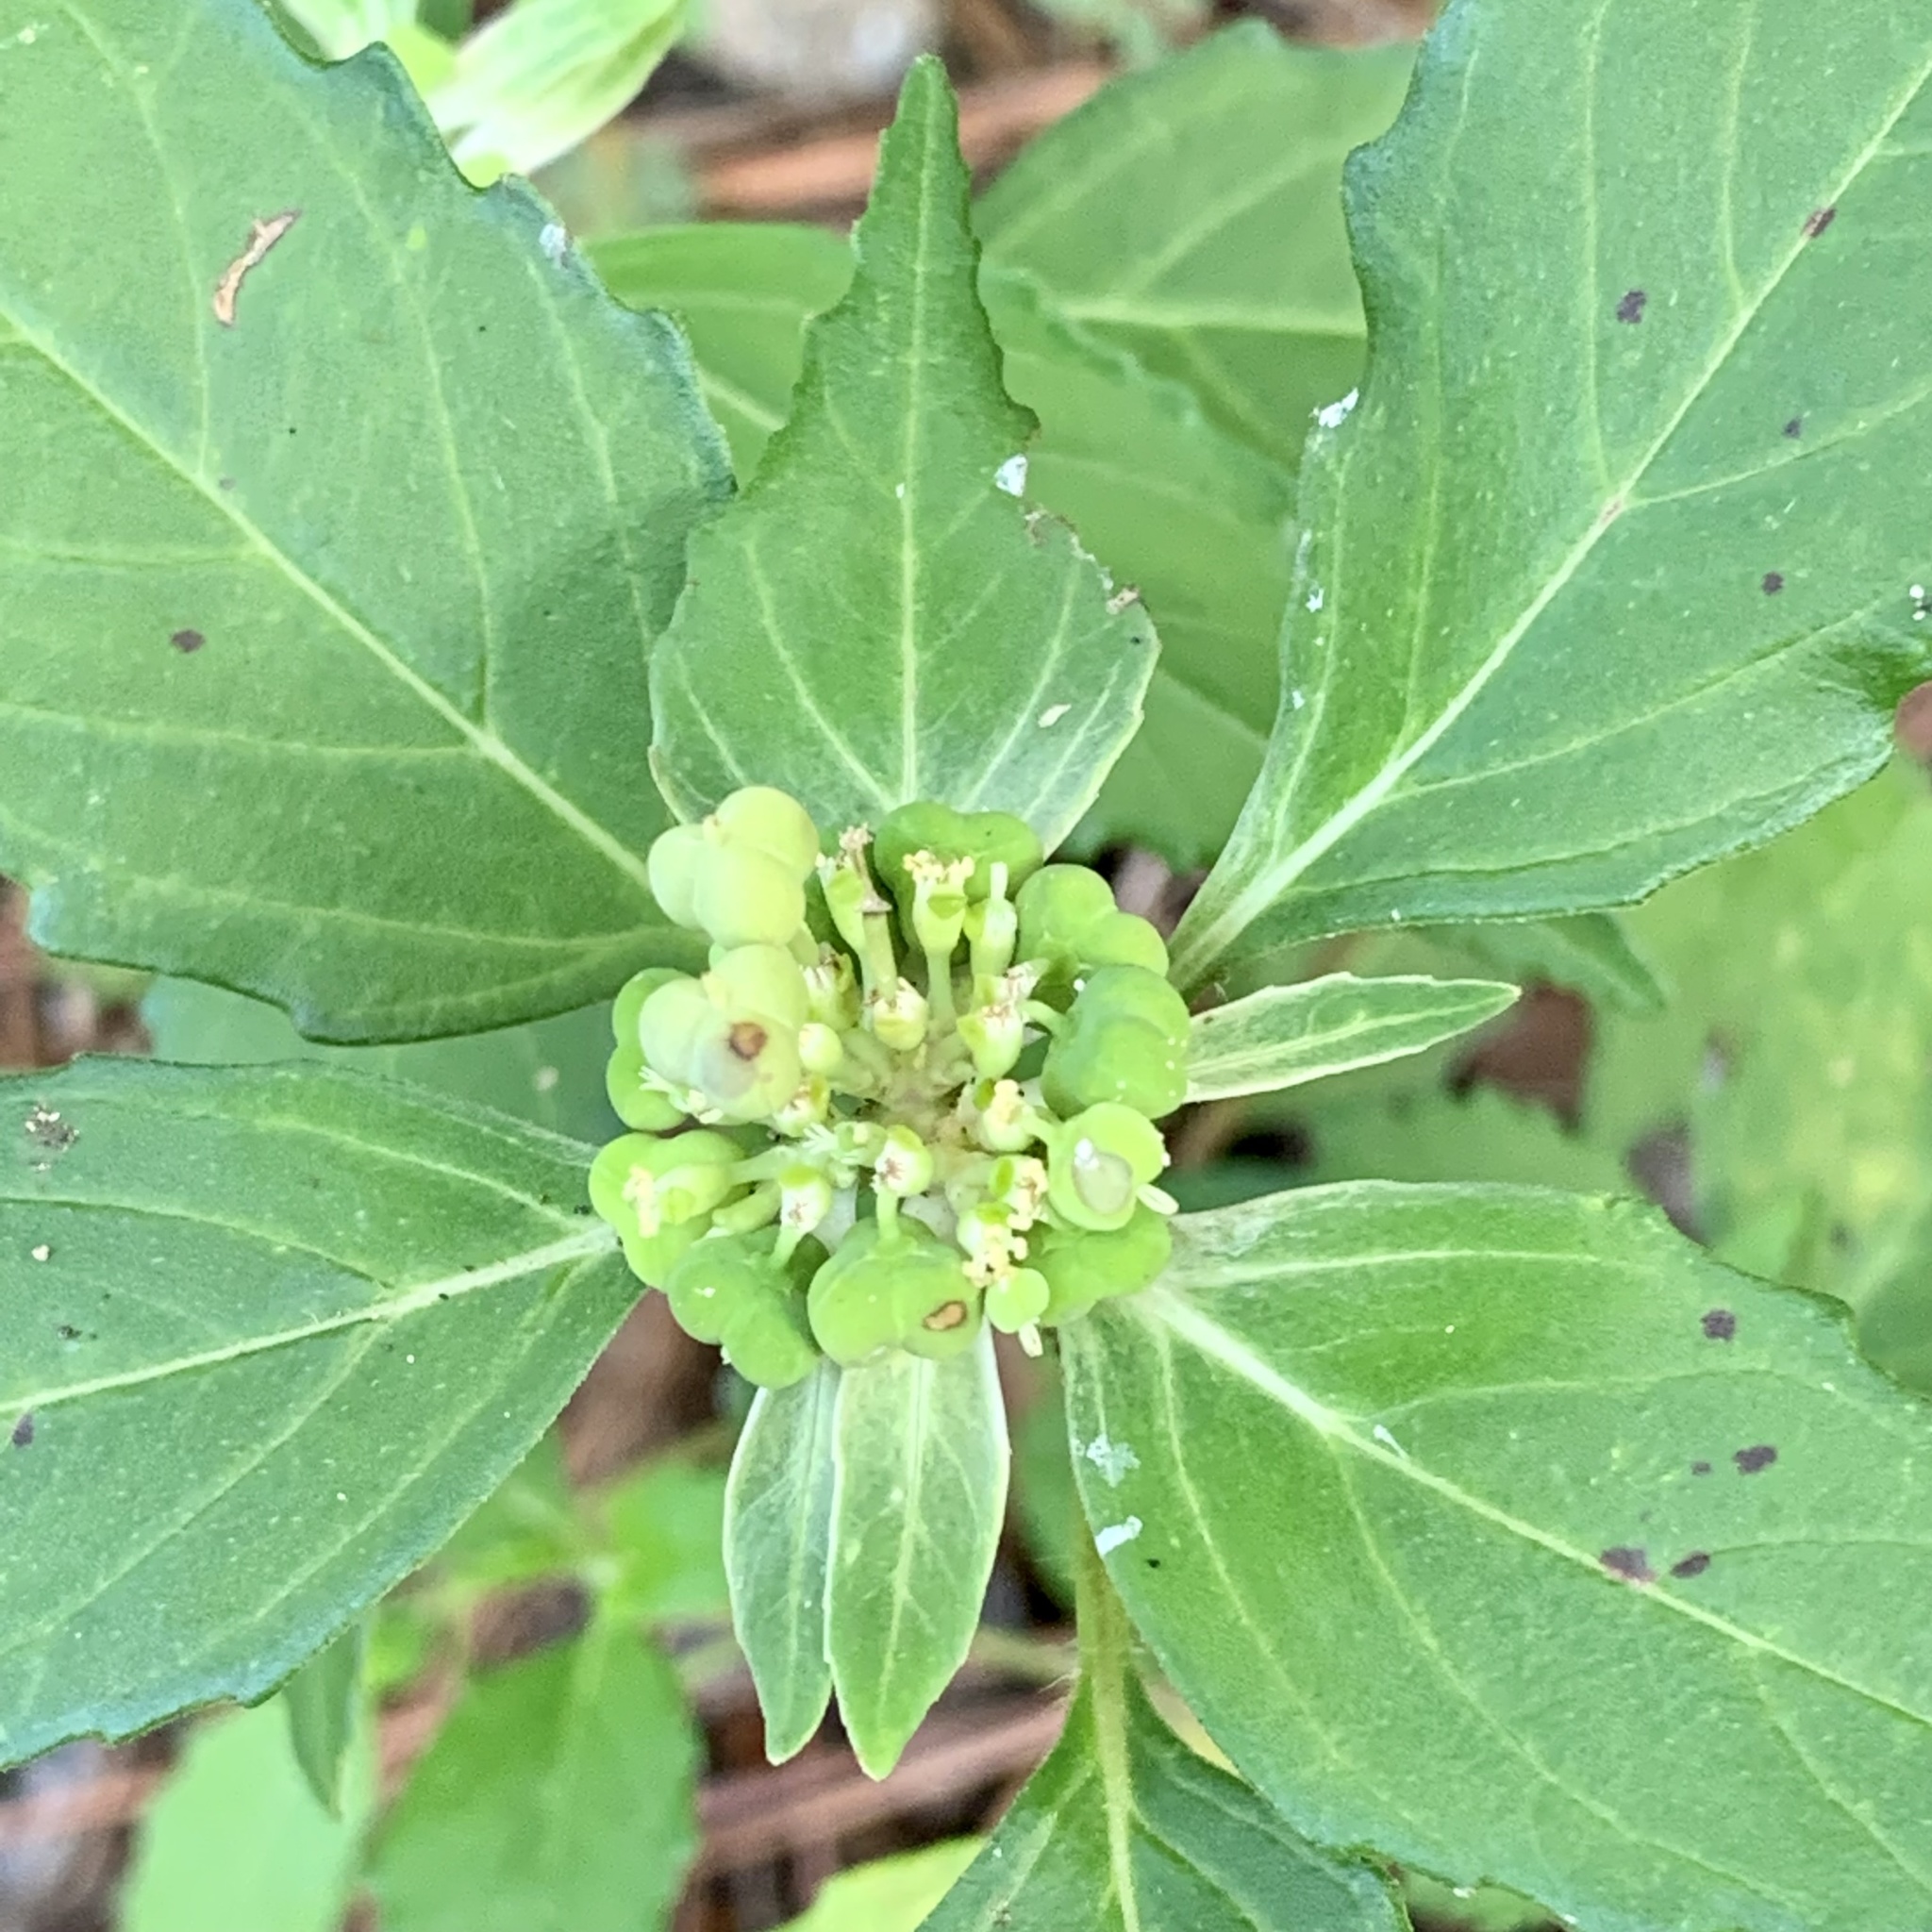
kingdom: Plantae
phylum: Tracheophyta
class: Magnoliopsida
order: Malpighiales
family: Euphorbiaceae
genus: Euphorbia
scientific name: Euphorbia dentata
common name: Dentate spurge
